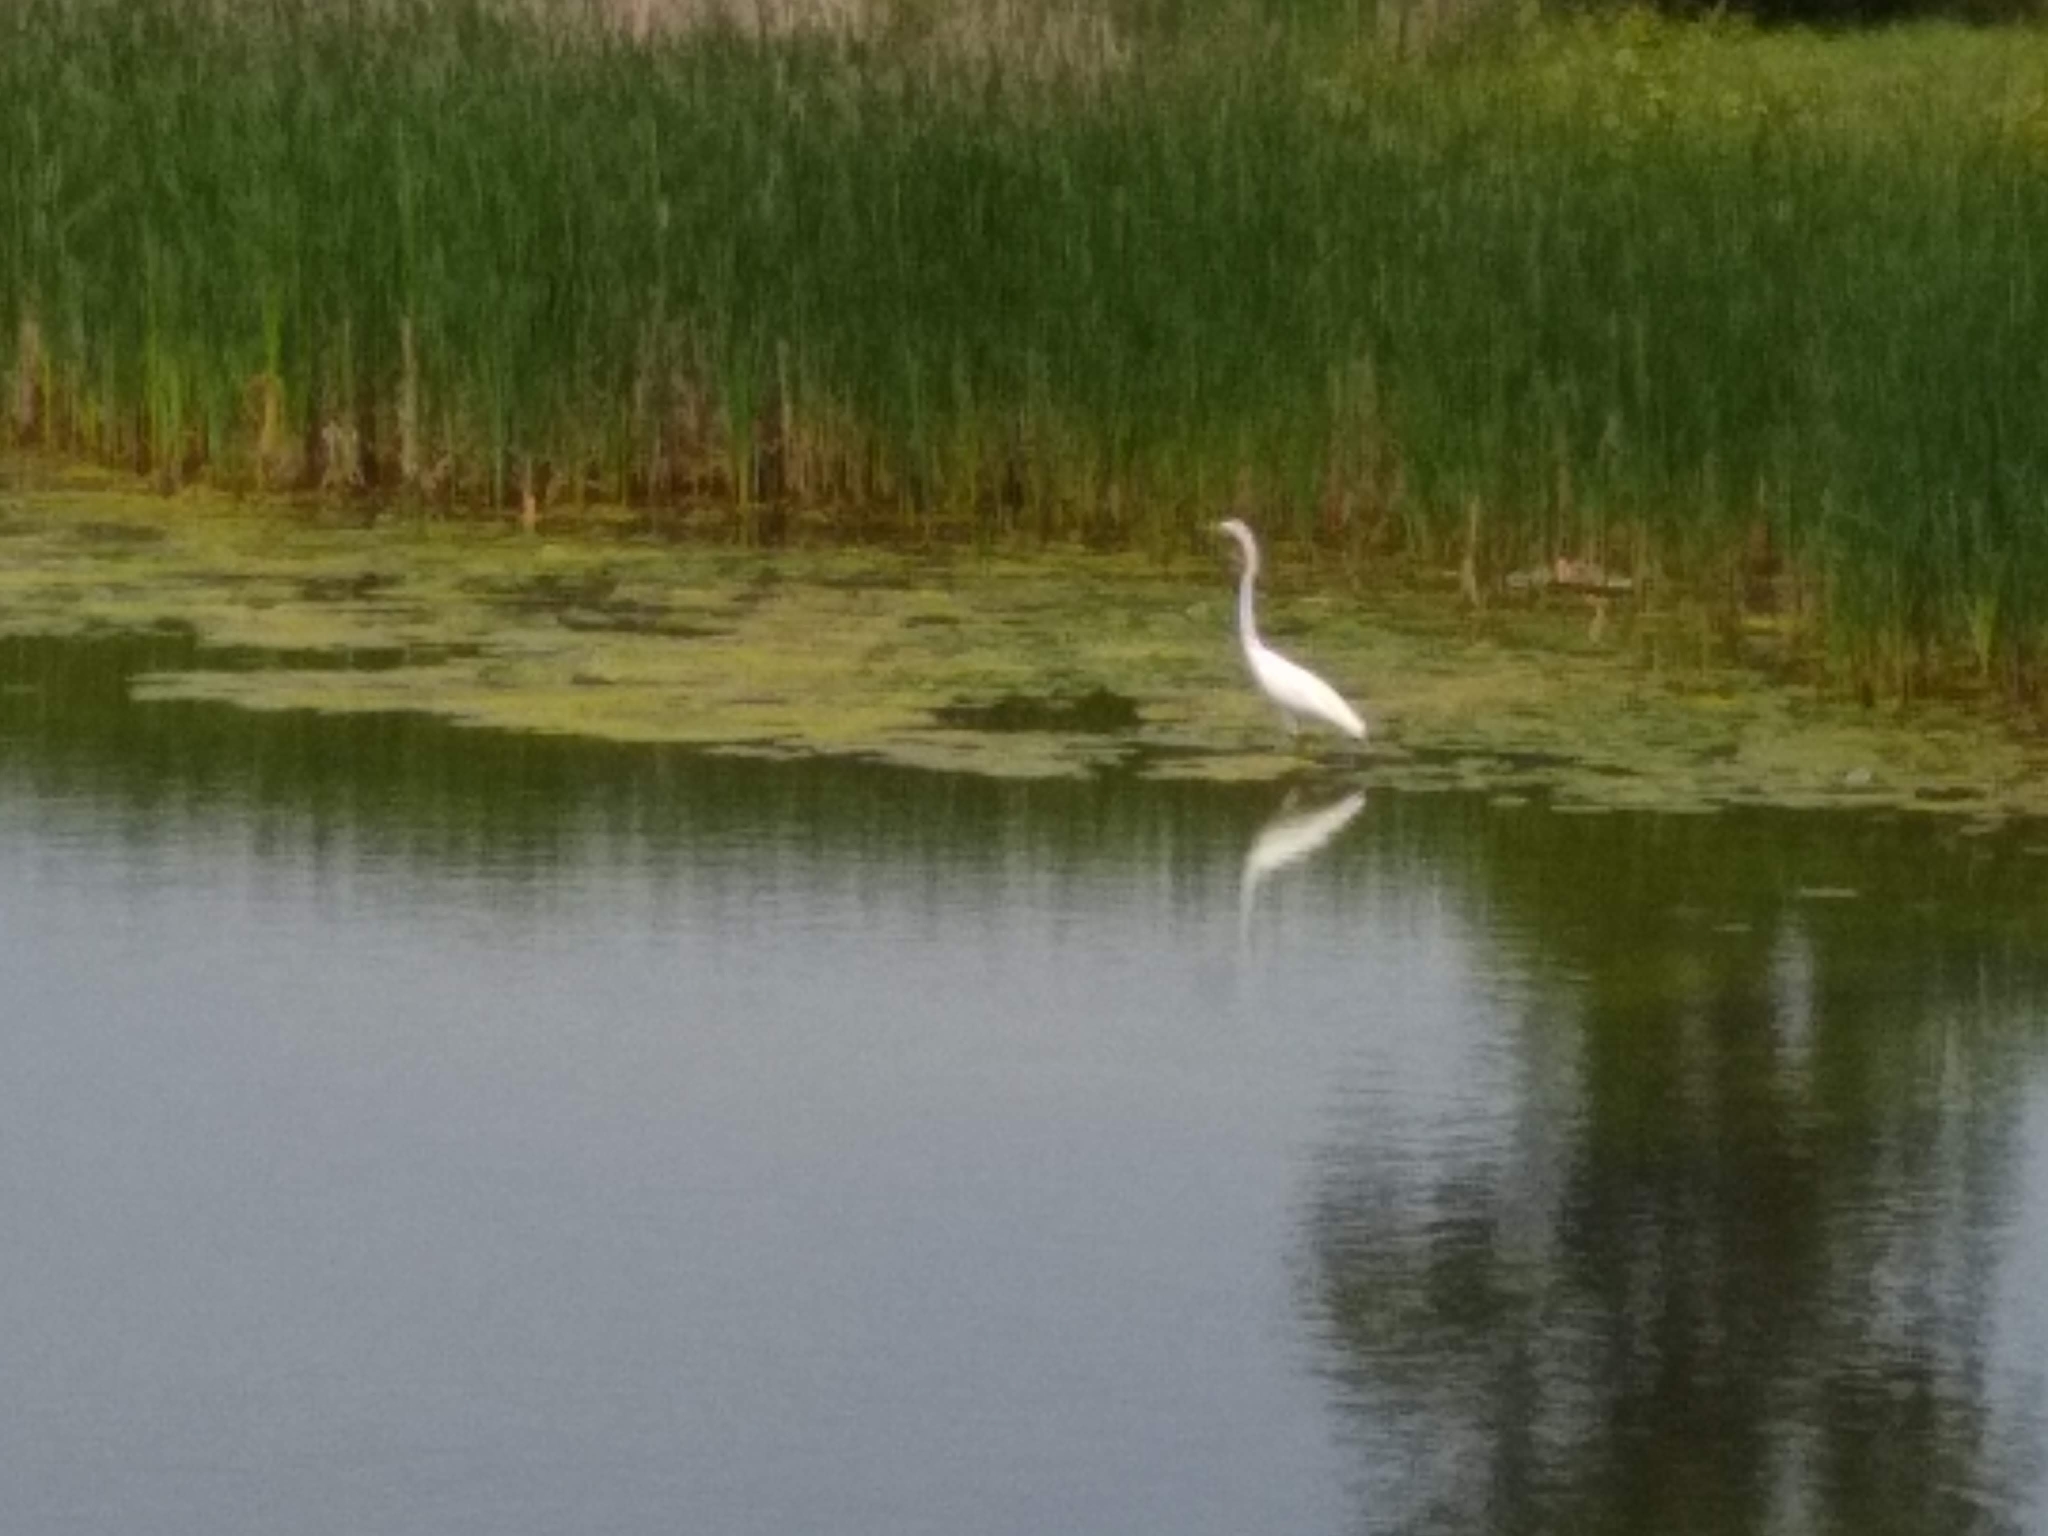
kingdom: Animalia
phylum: Chordata
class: Aves
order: Pelecaniformes
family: Ardeidae
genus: Ardea
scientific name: Ardea alba
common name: Great egret
